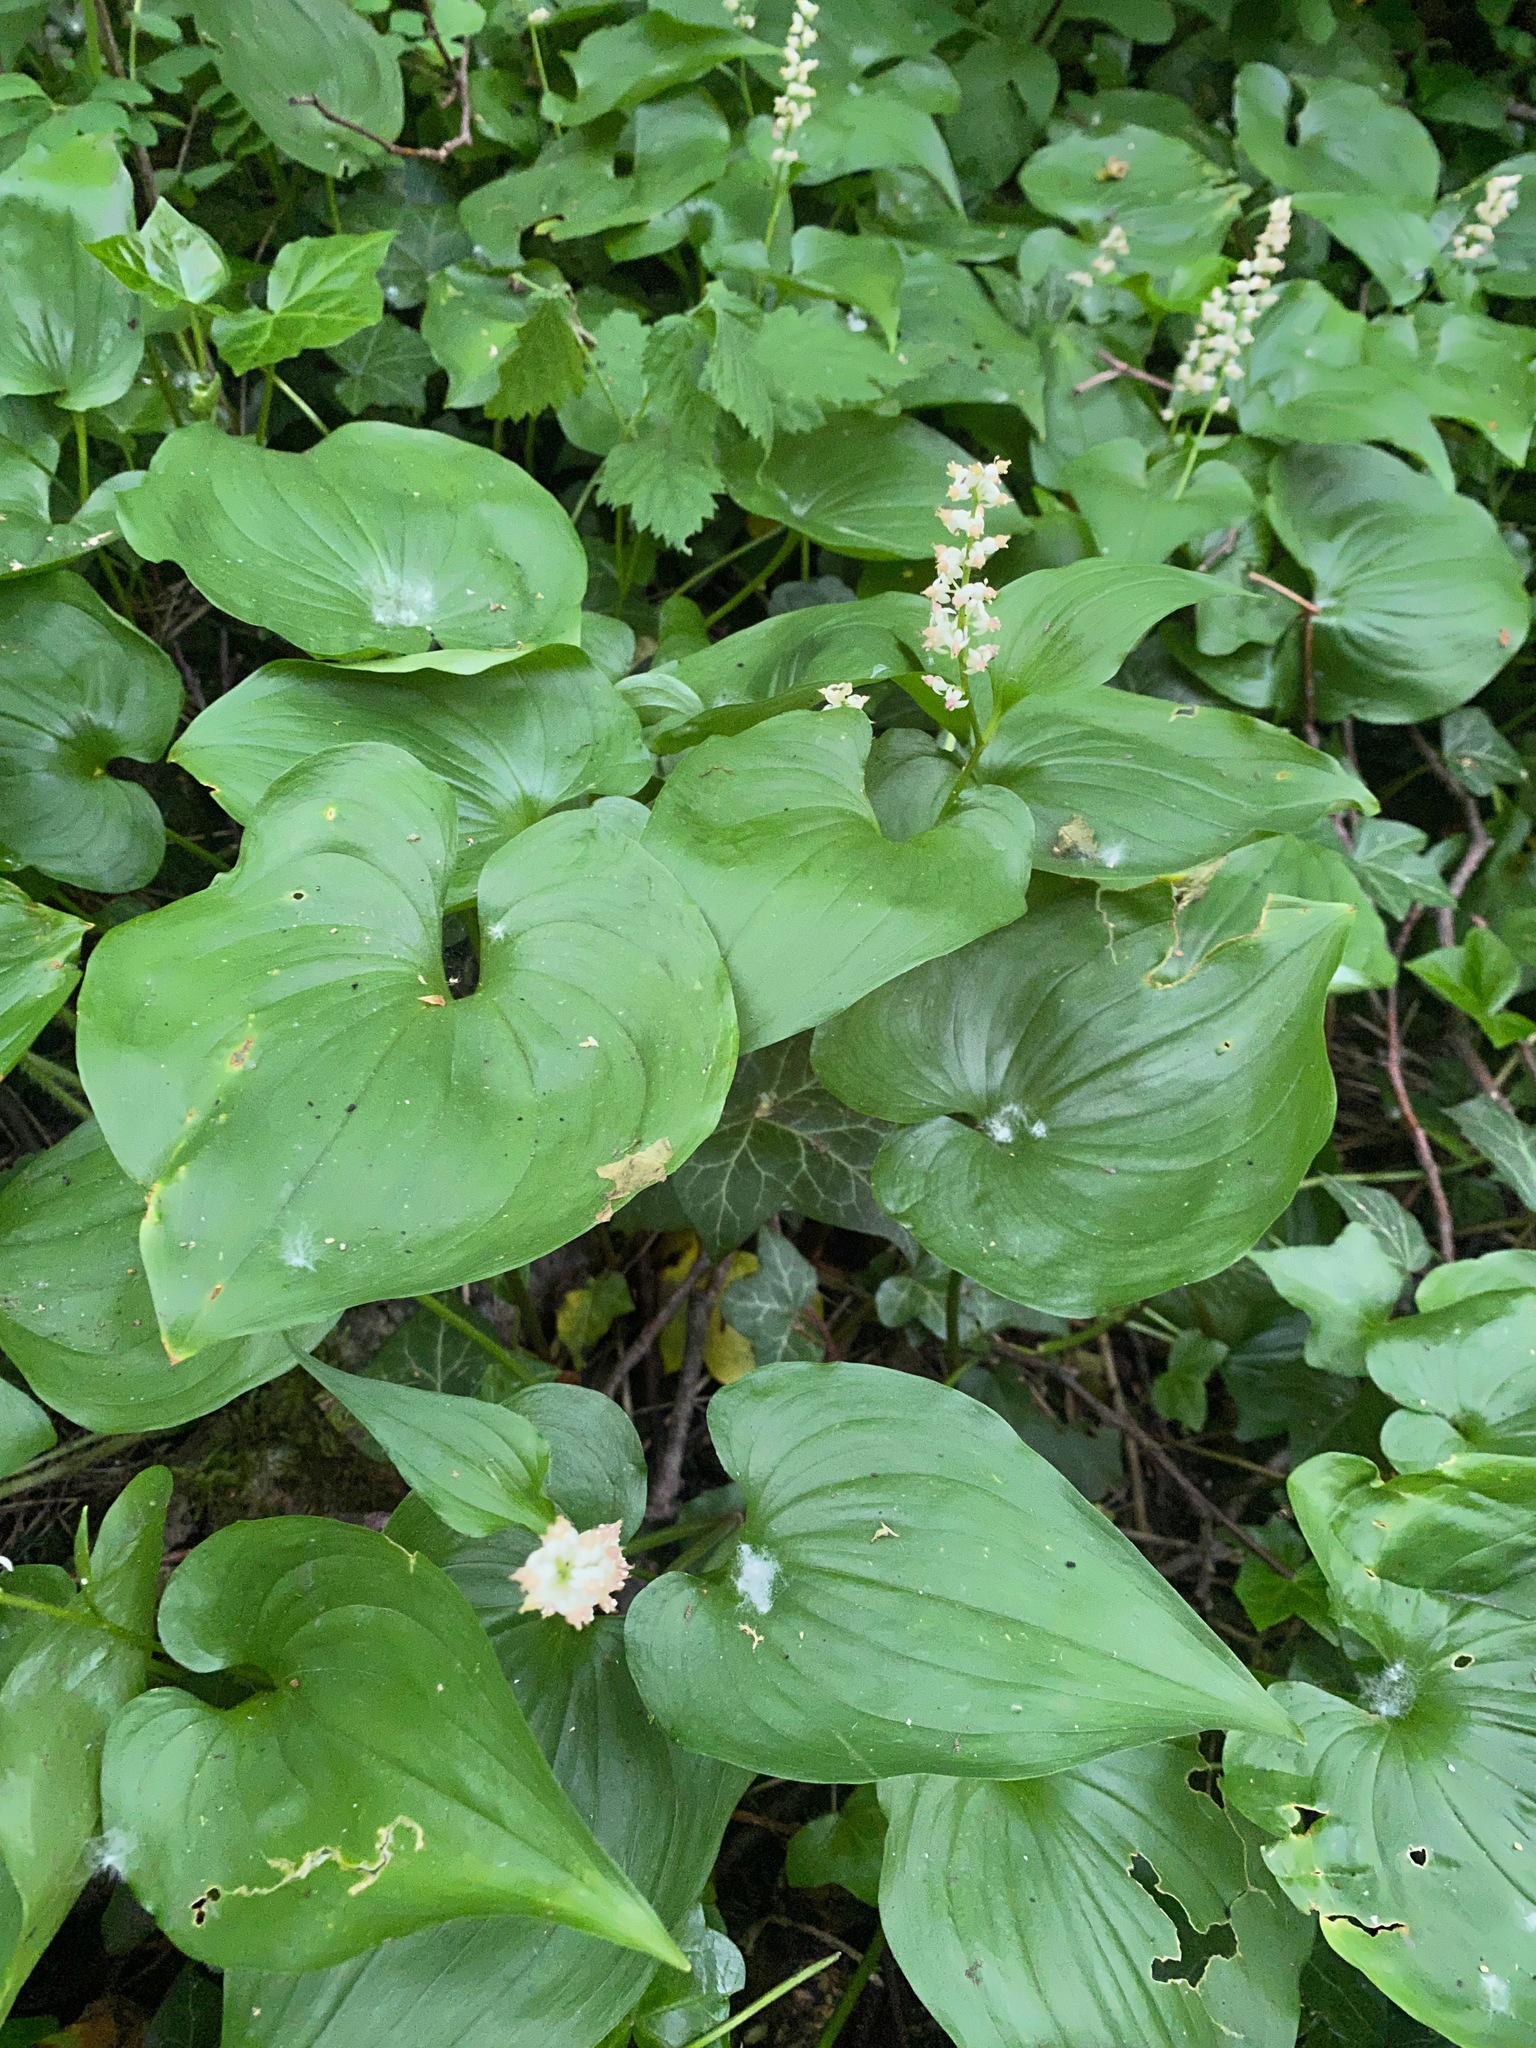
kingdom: Plantae
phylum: Tracheophyta
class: Liliopsida
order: Asparagales
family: Asparagaceae
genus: Maianthemum
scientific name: Maianthemum dilatatum
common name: False lily-of-the-valley
